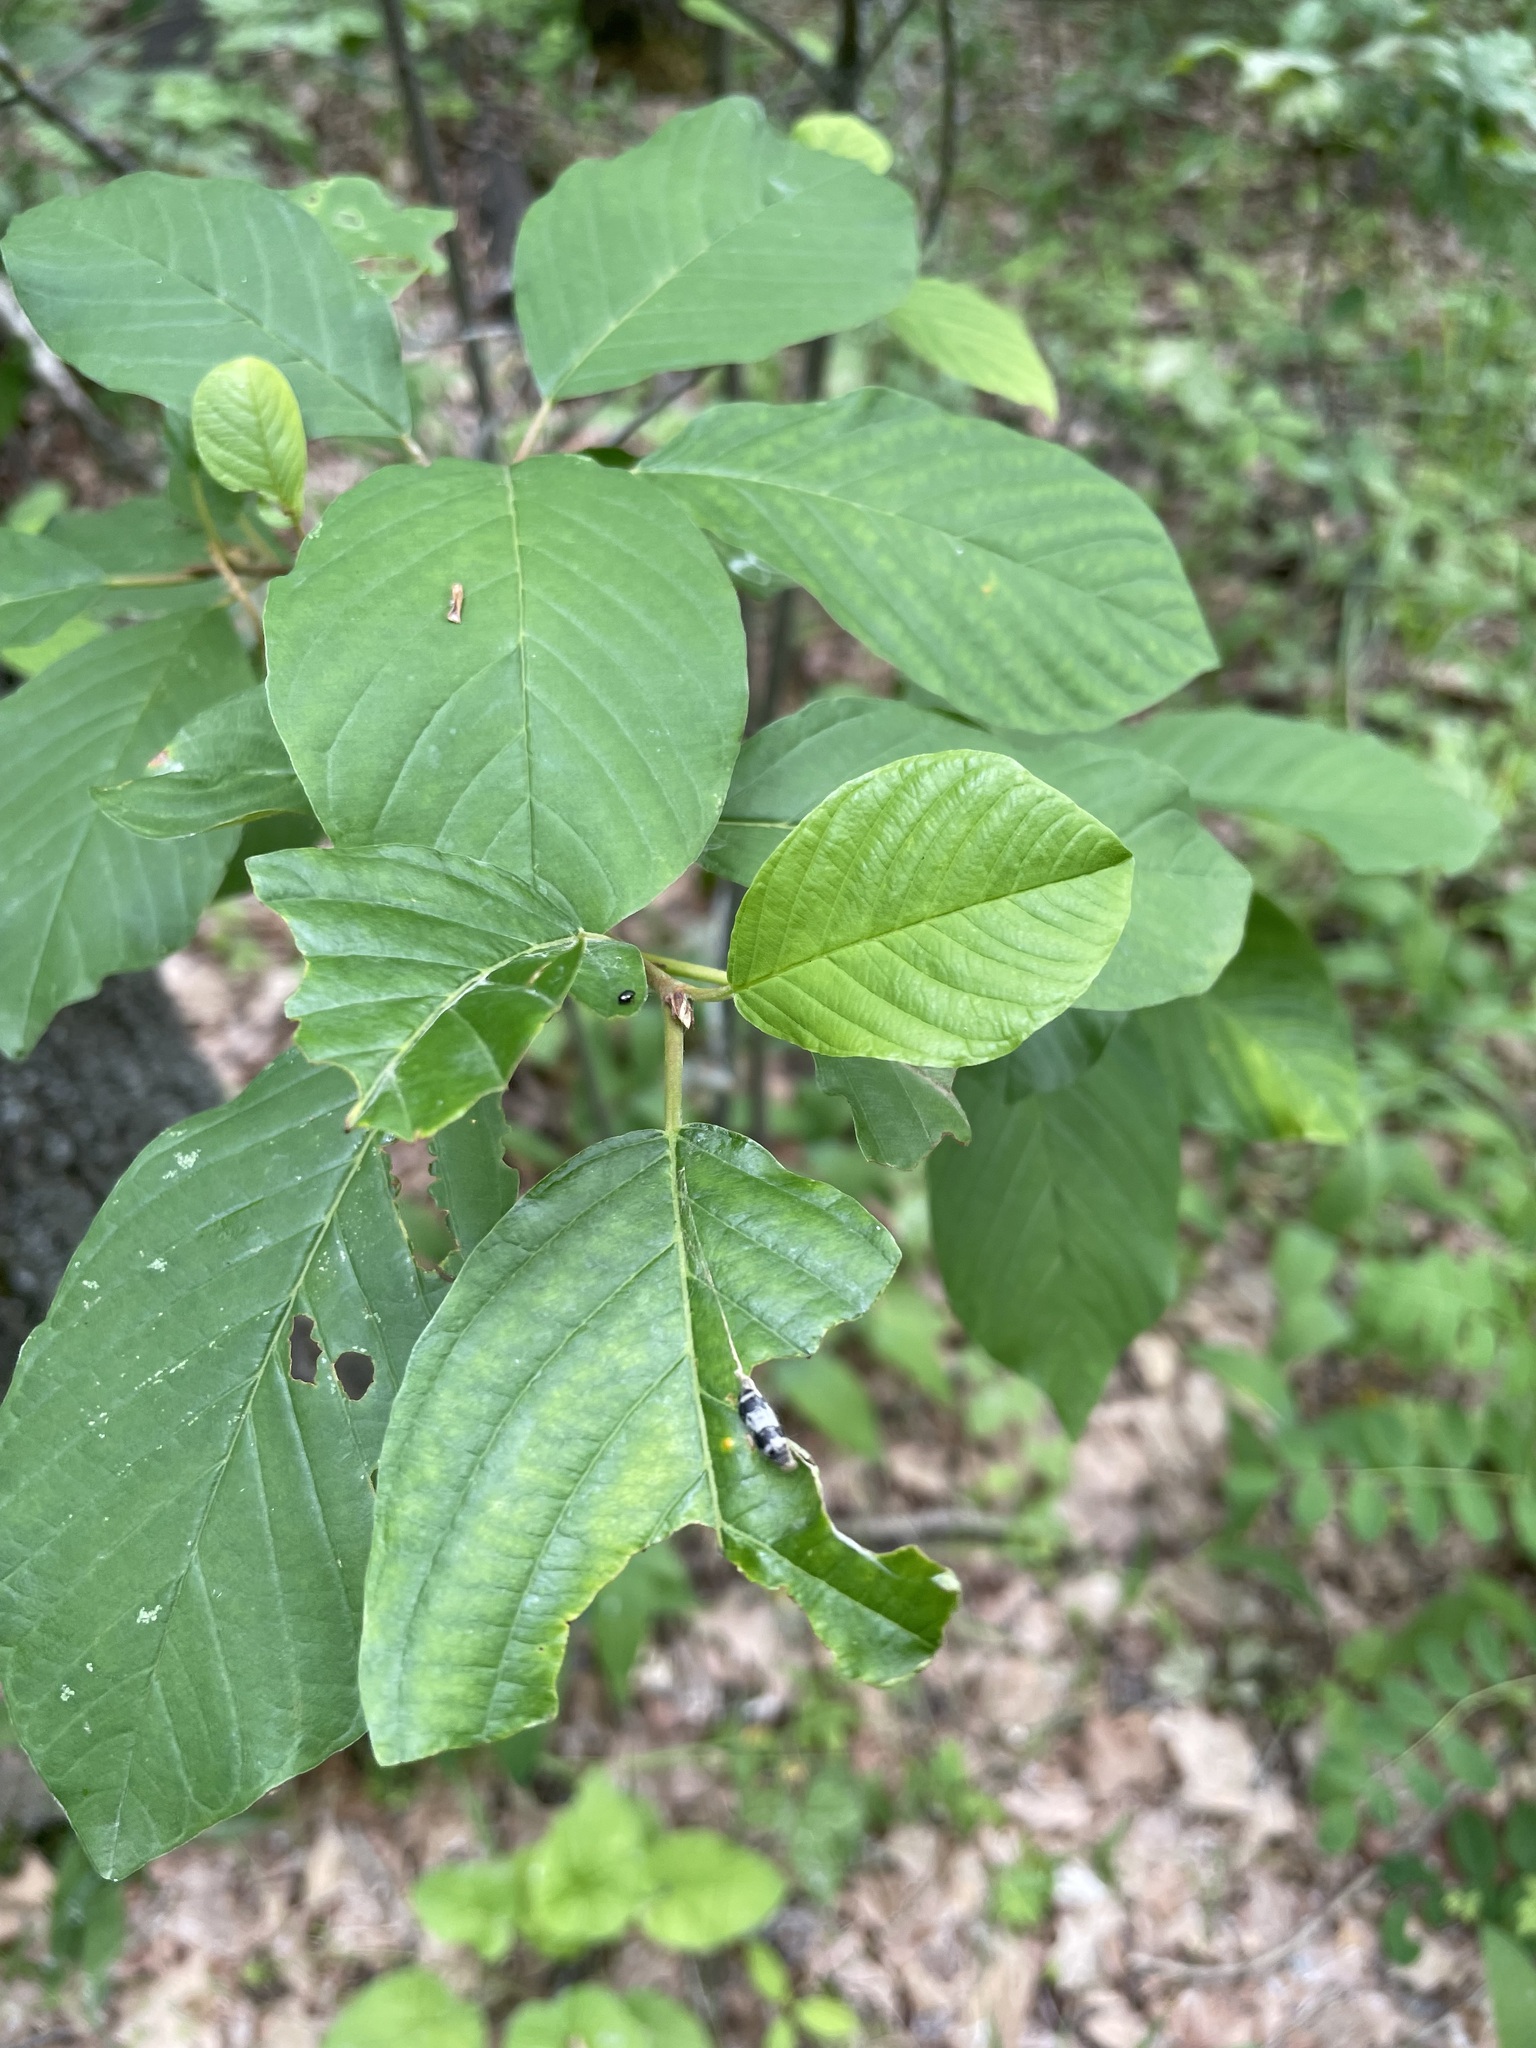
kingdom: Plantae
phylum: Tracheophyta
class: Magnoliopsida
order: Rosales
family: Rhamnaceae
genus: Frangula
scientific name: Frangula alnus
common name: Alder buckthorn
